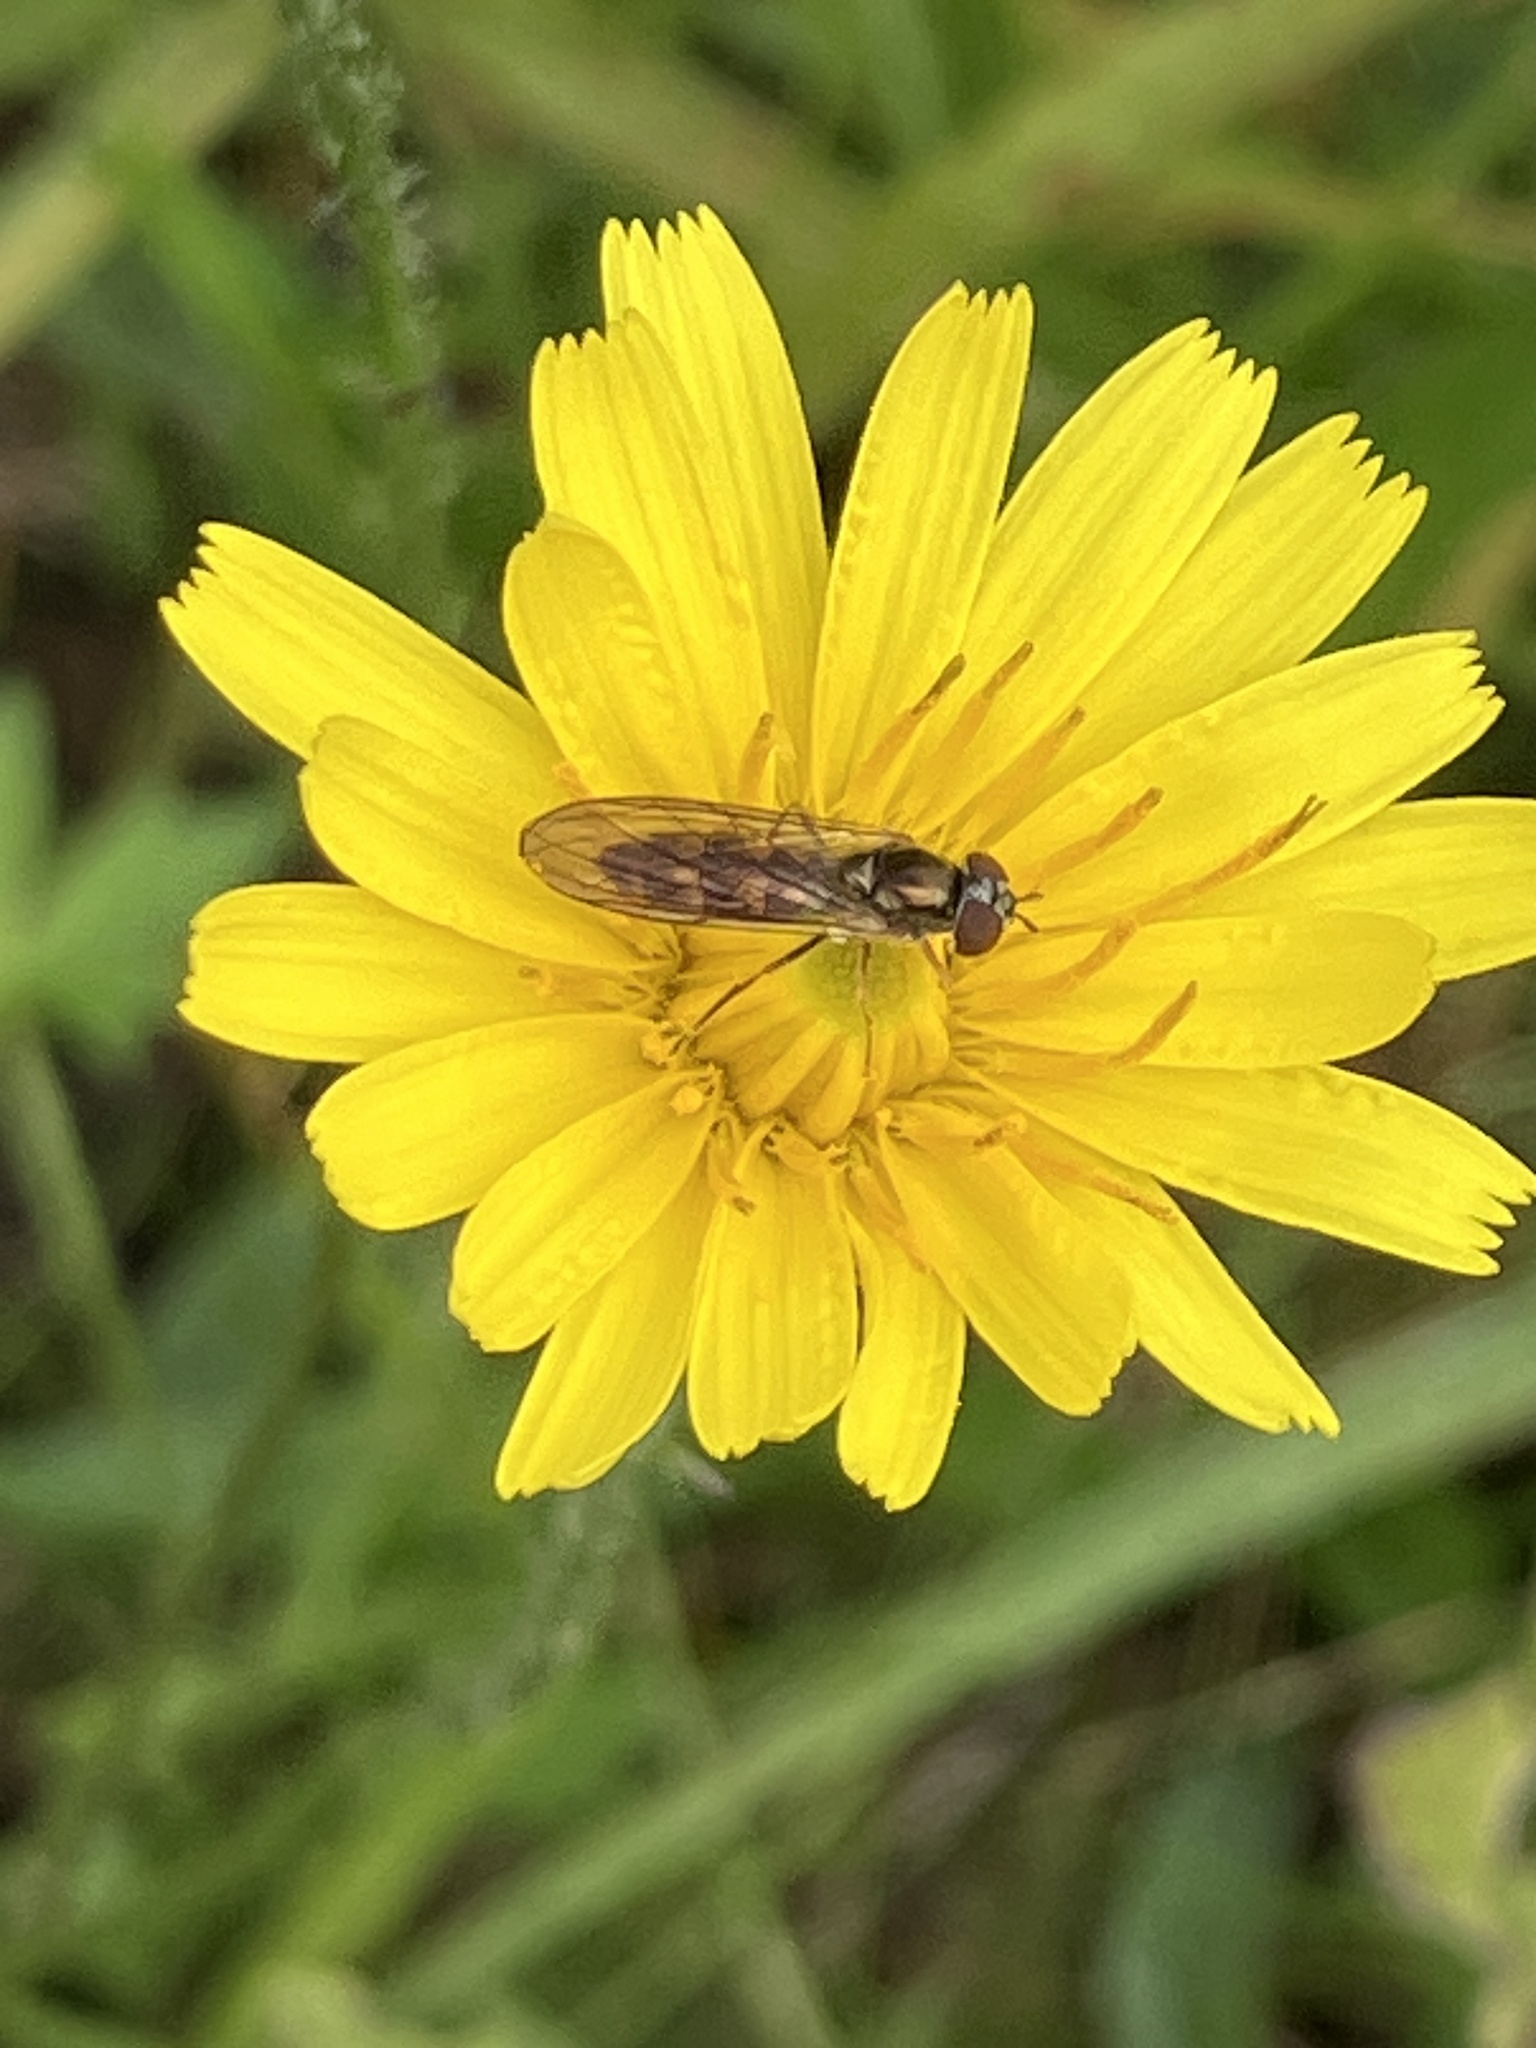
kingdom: Animalia
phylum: Arthropoda
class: Insecta
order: Diptera
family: Syrphidae
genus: Melanostoma
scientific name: Melanostoma scalare
